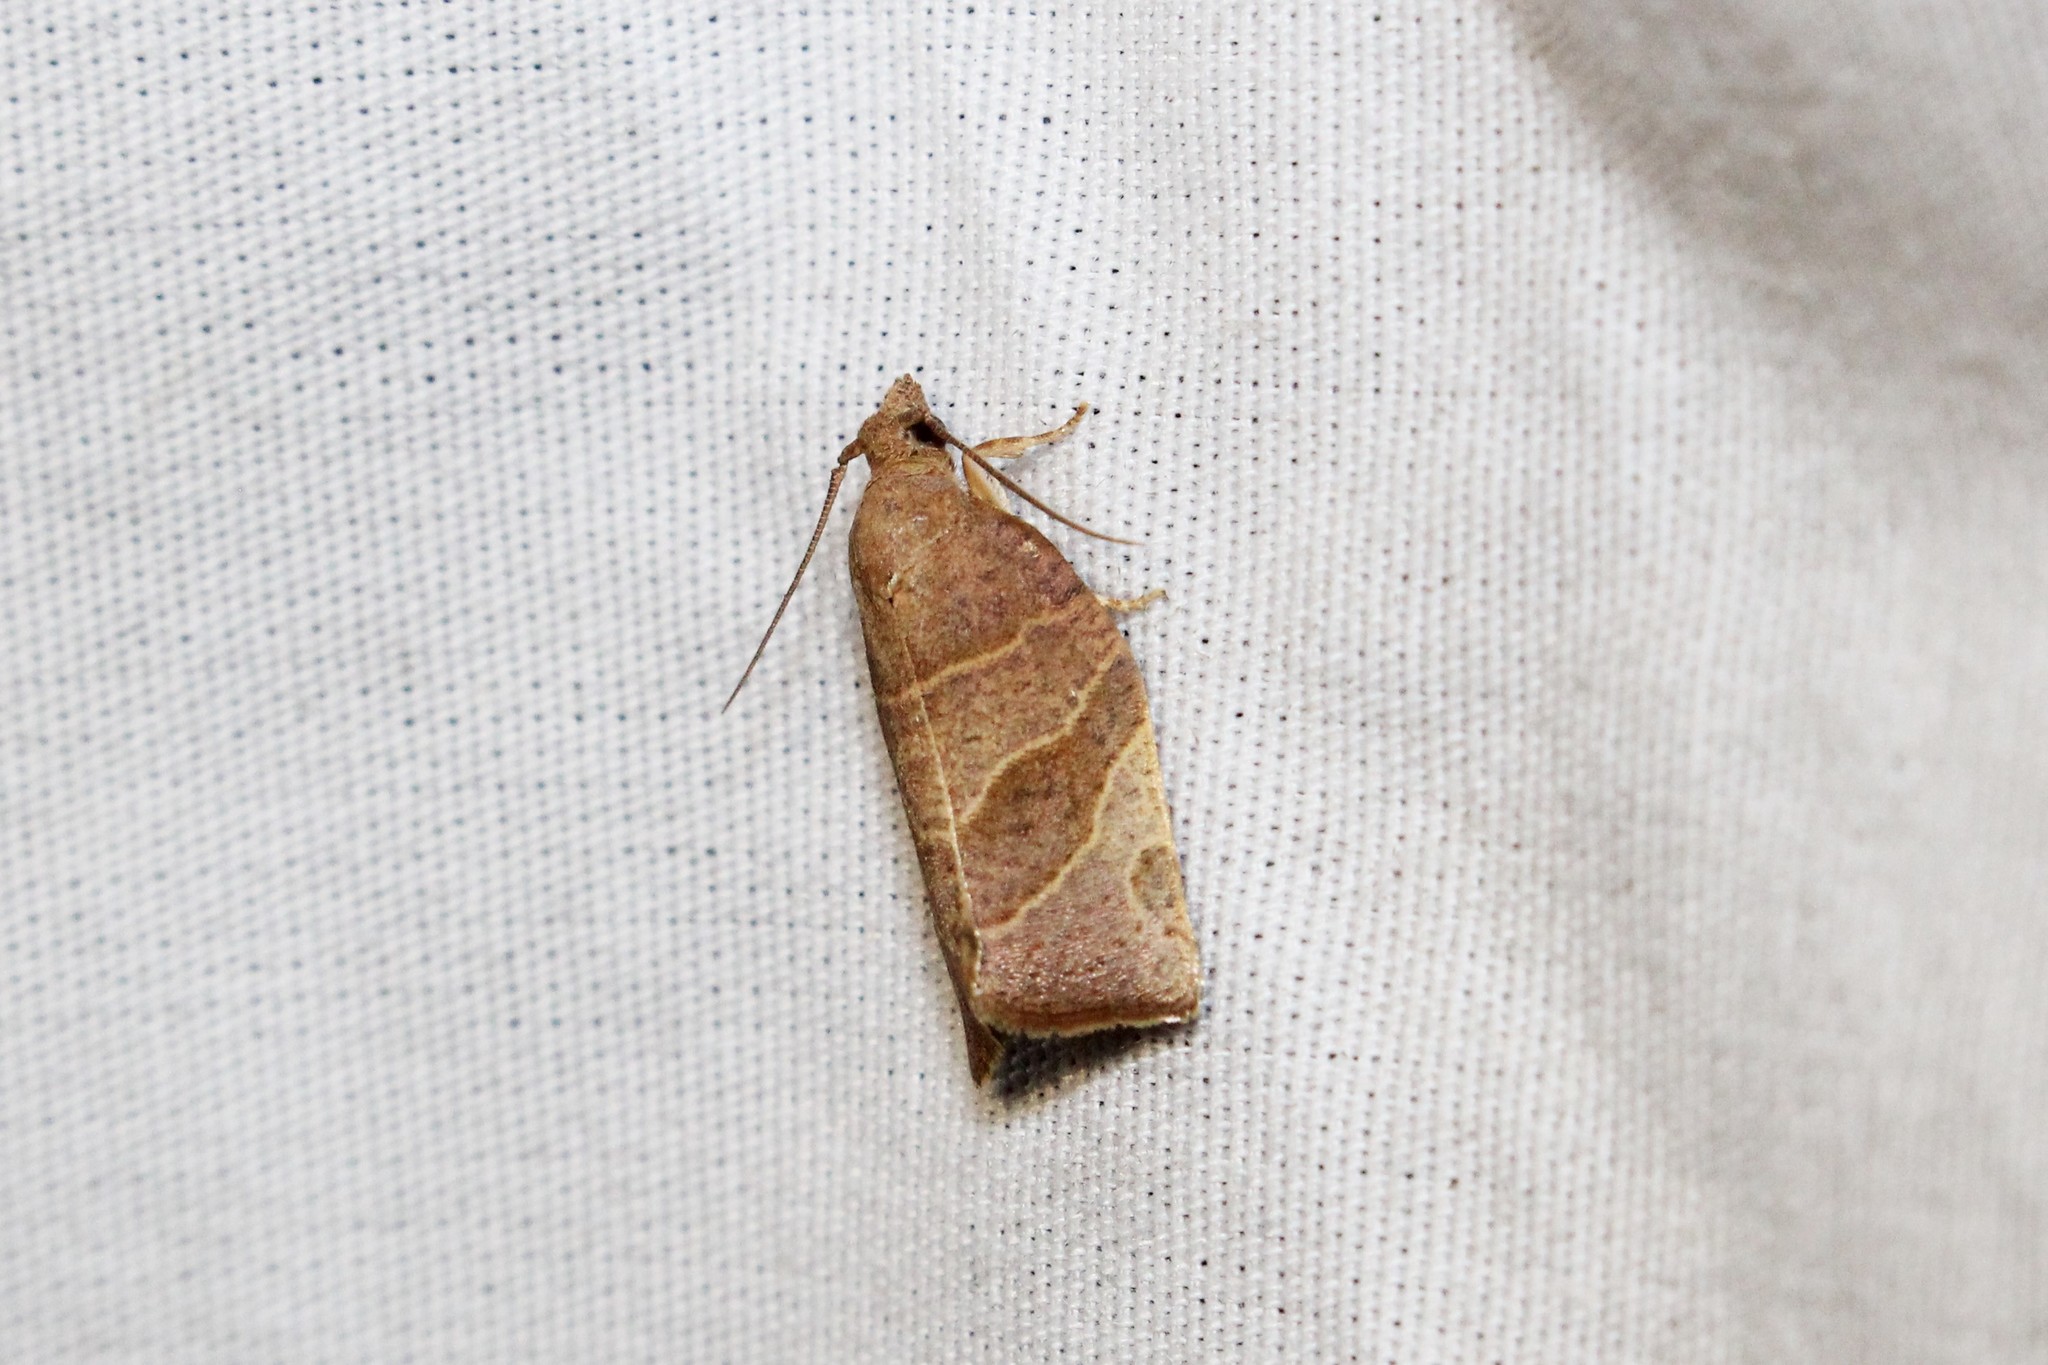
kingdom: Animalia
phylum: Arthropoda
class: Insecta
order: Lepidoptera
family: Tortricidae
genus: Pandemis
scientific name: Pandemis limitata
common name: Three-lined leafroller moth
